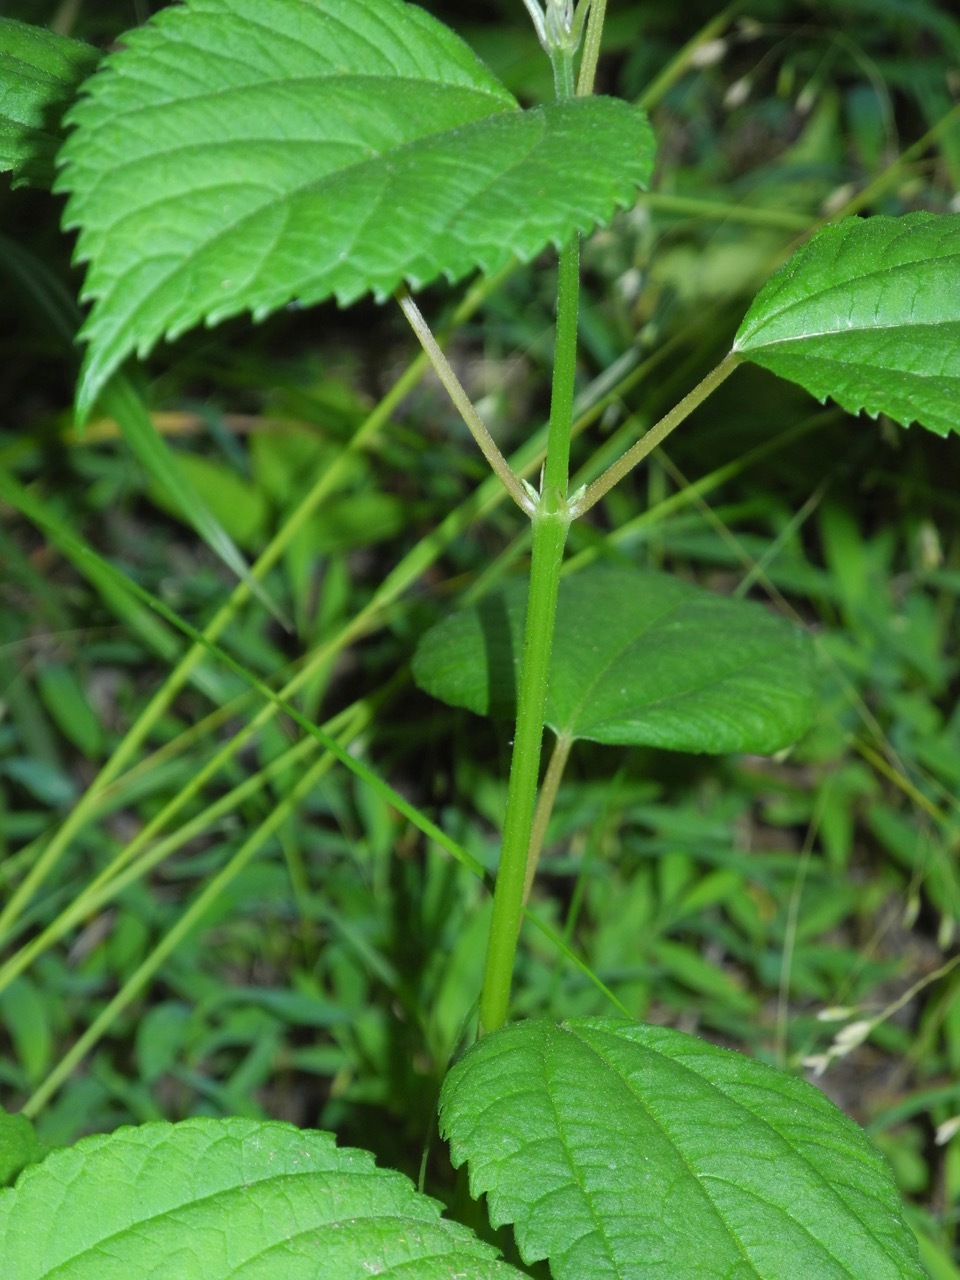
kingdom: Plantae
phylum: Tracheophyta
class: Magnoliopsida
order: Rosales
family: Urticaceae
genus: Boehmeria
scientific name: Boehmeria cylindrica
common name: Bog-hemp
